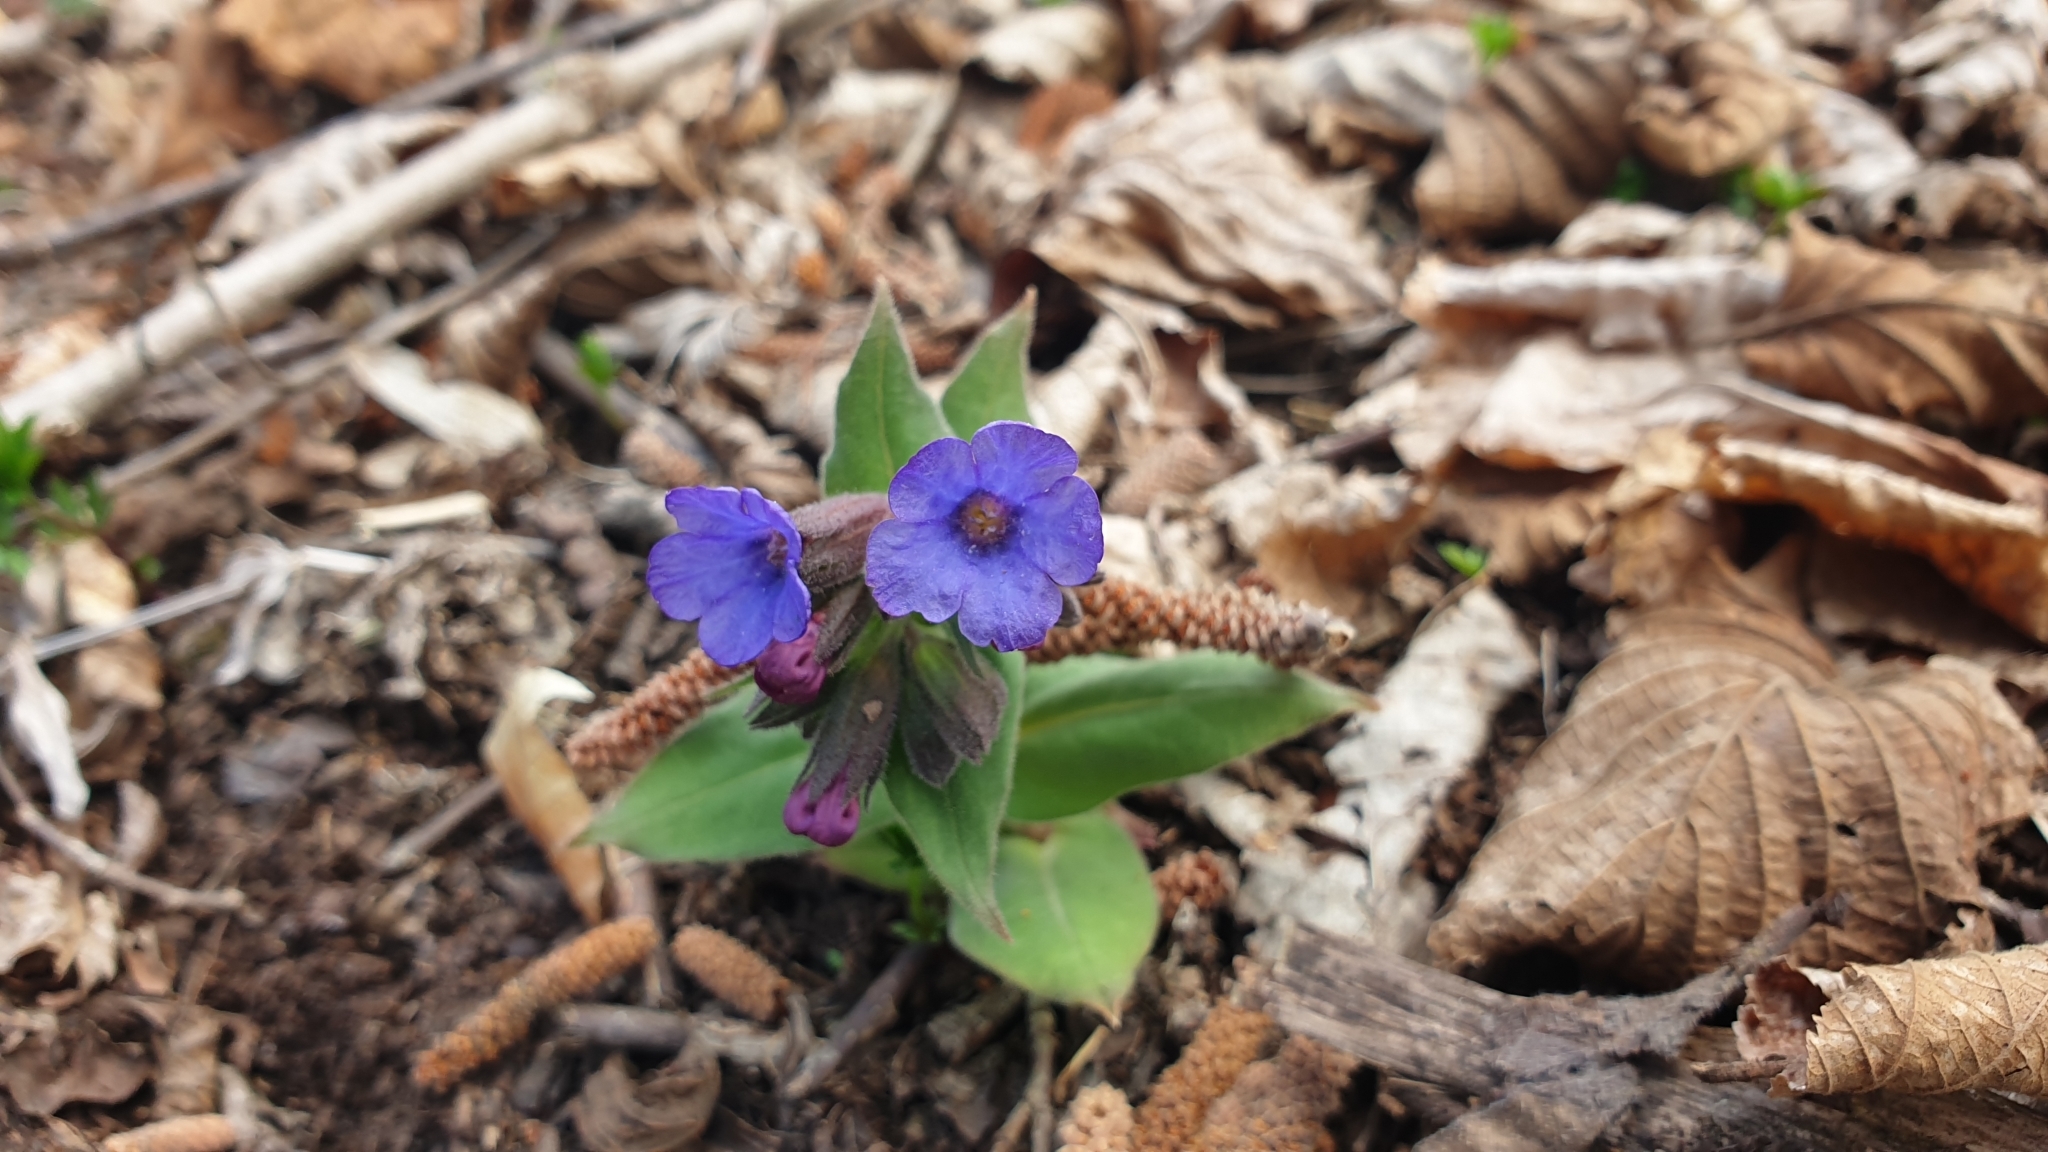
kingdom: Plantae
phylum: Tracheophyta
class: Magnoliopsida
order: Boraginales
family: Boraginaceae
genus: Pulmonaria
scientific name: Pulmonaria mollis
